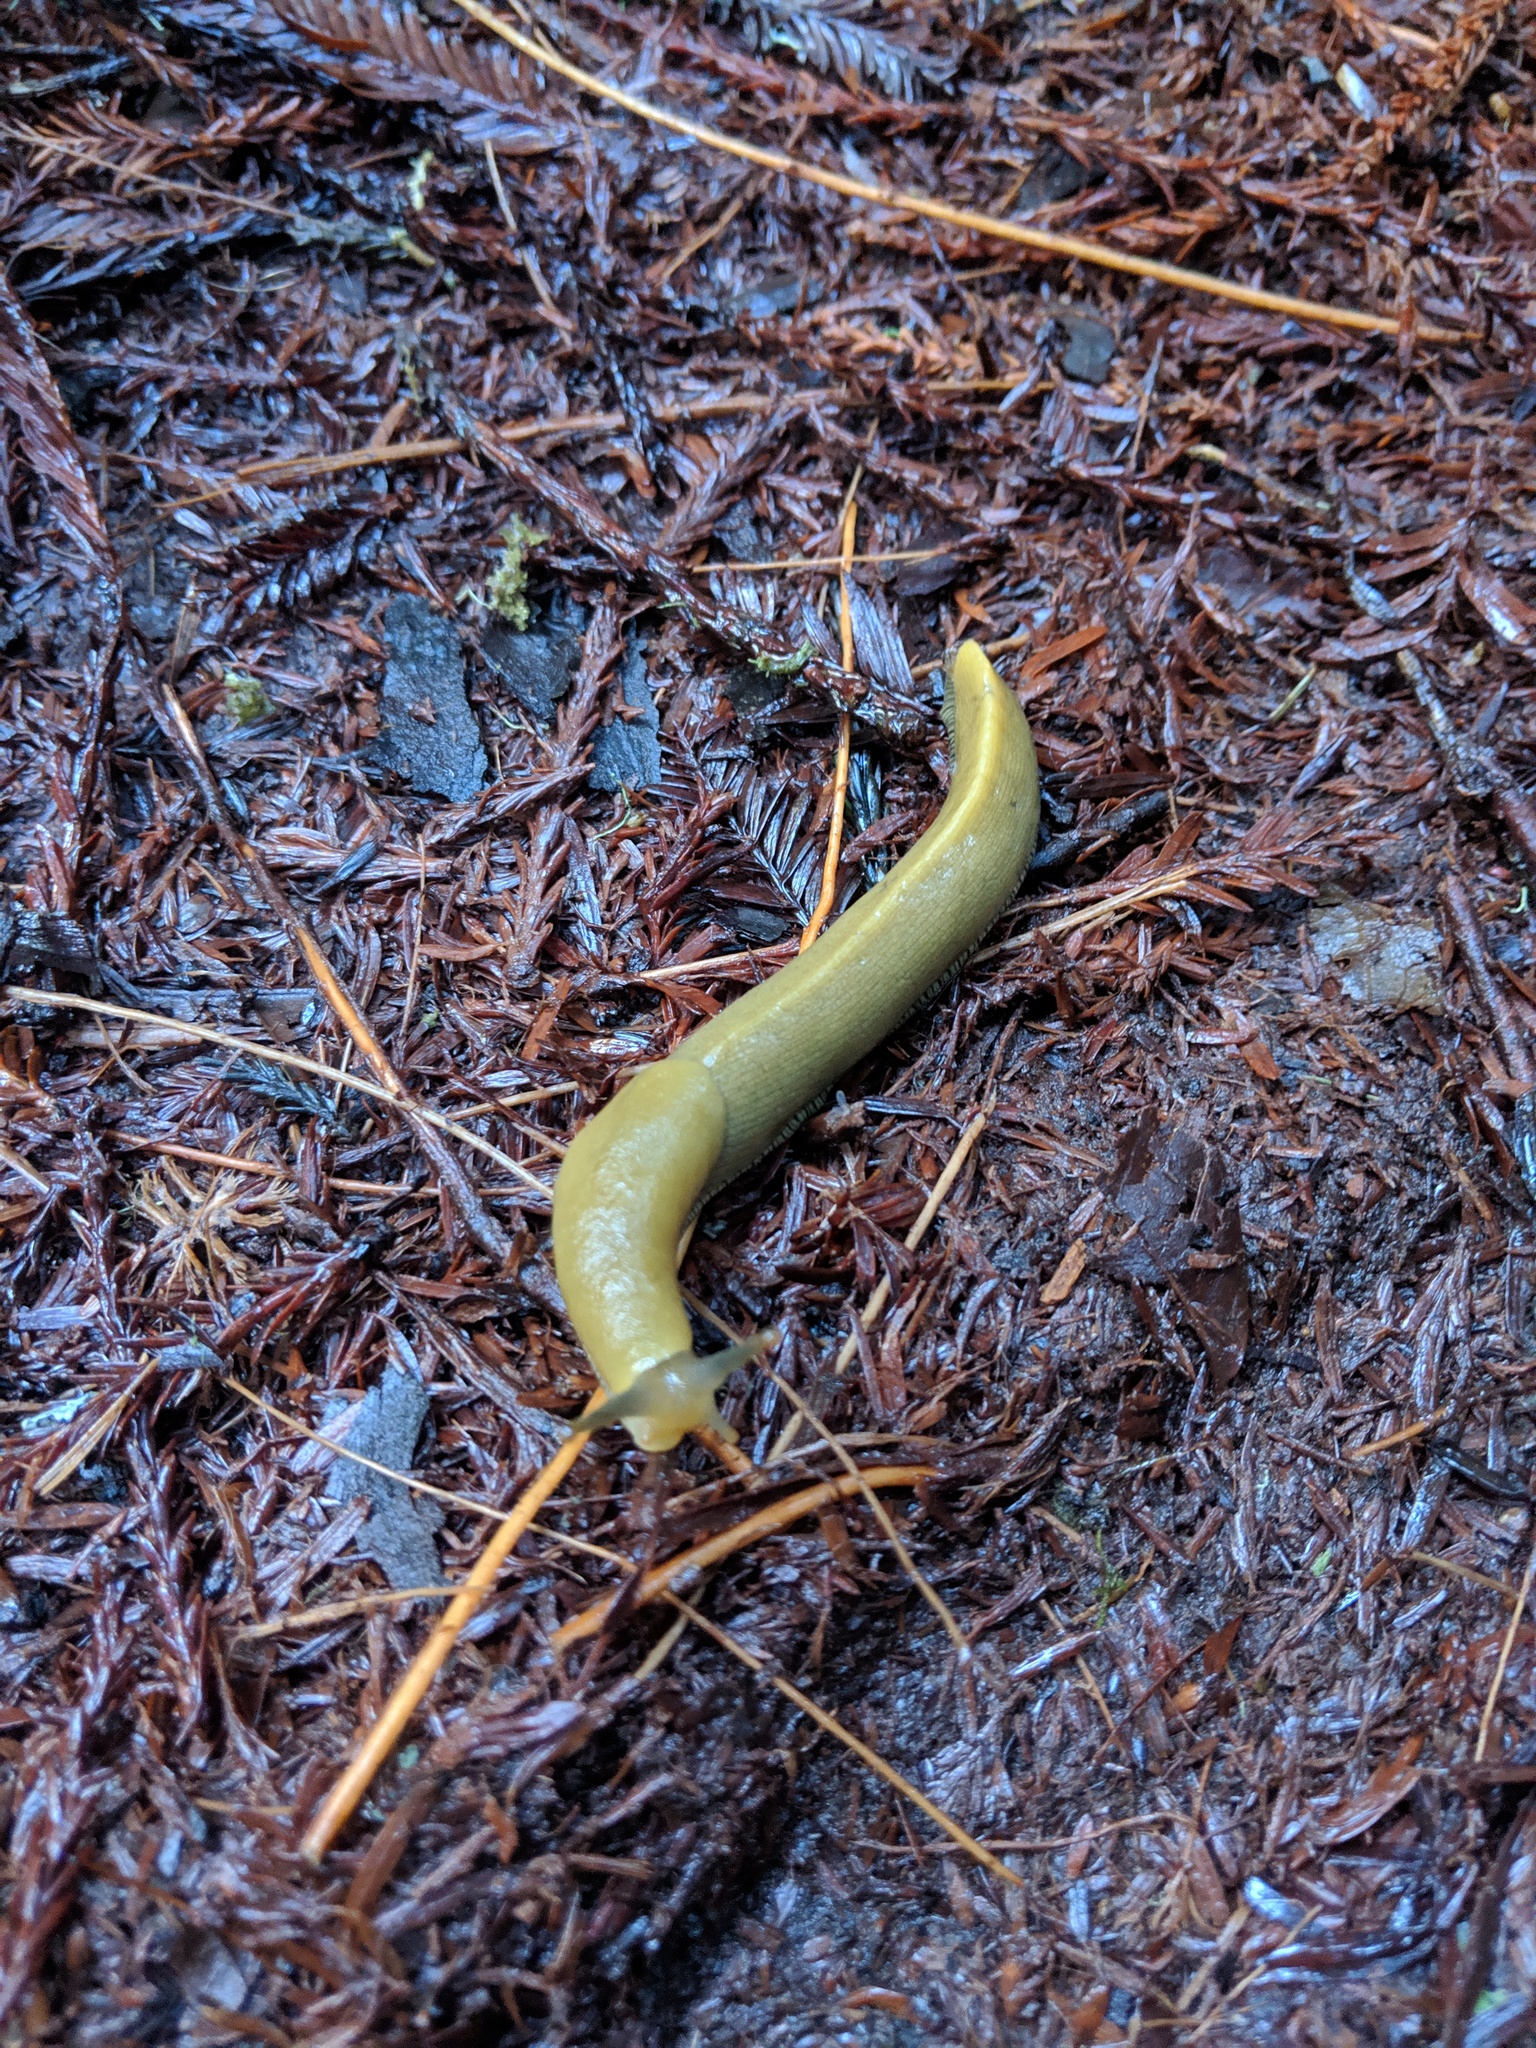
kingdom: Animalia
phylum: Mollusca
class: Gastropoda
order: Stylommatophora
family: Ariolimacidae
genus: Ariolimax
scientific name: Ariolimax buttoni
